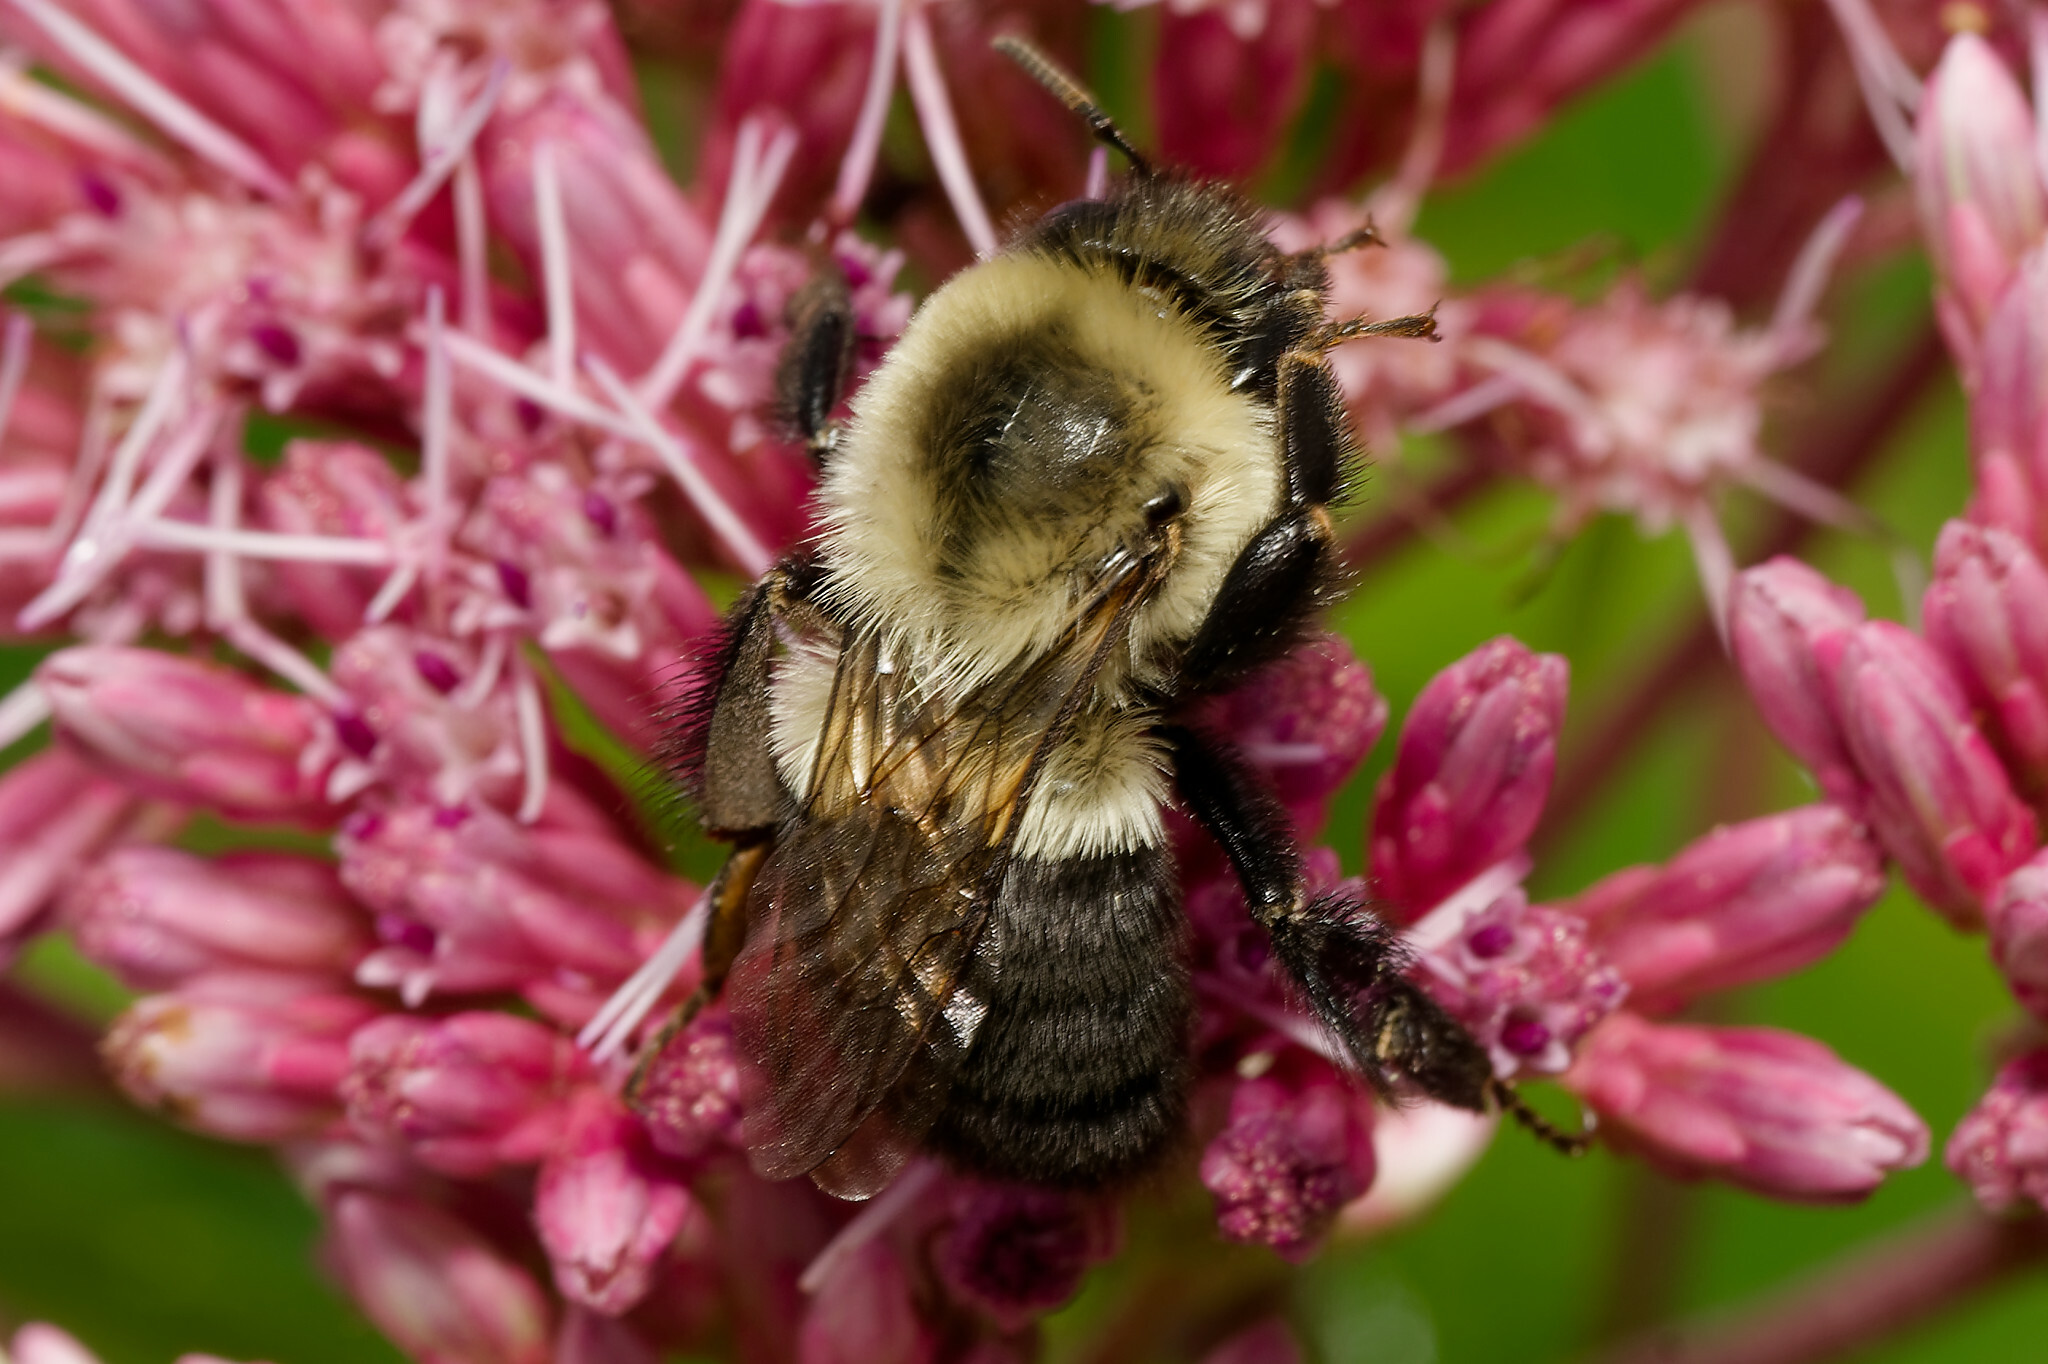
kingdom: Animalia
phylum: Arthropoda
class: Insecta
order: Hymenoptera
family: Apidae
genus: Bombus
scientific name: Bombus impatiens
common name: Common eastern bumble bee
